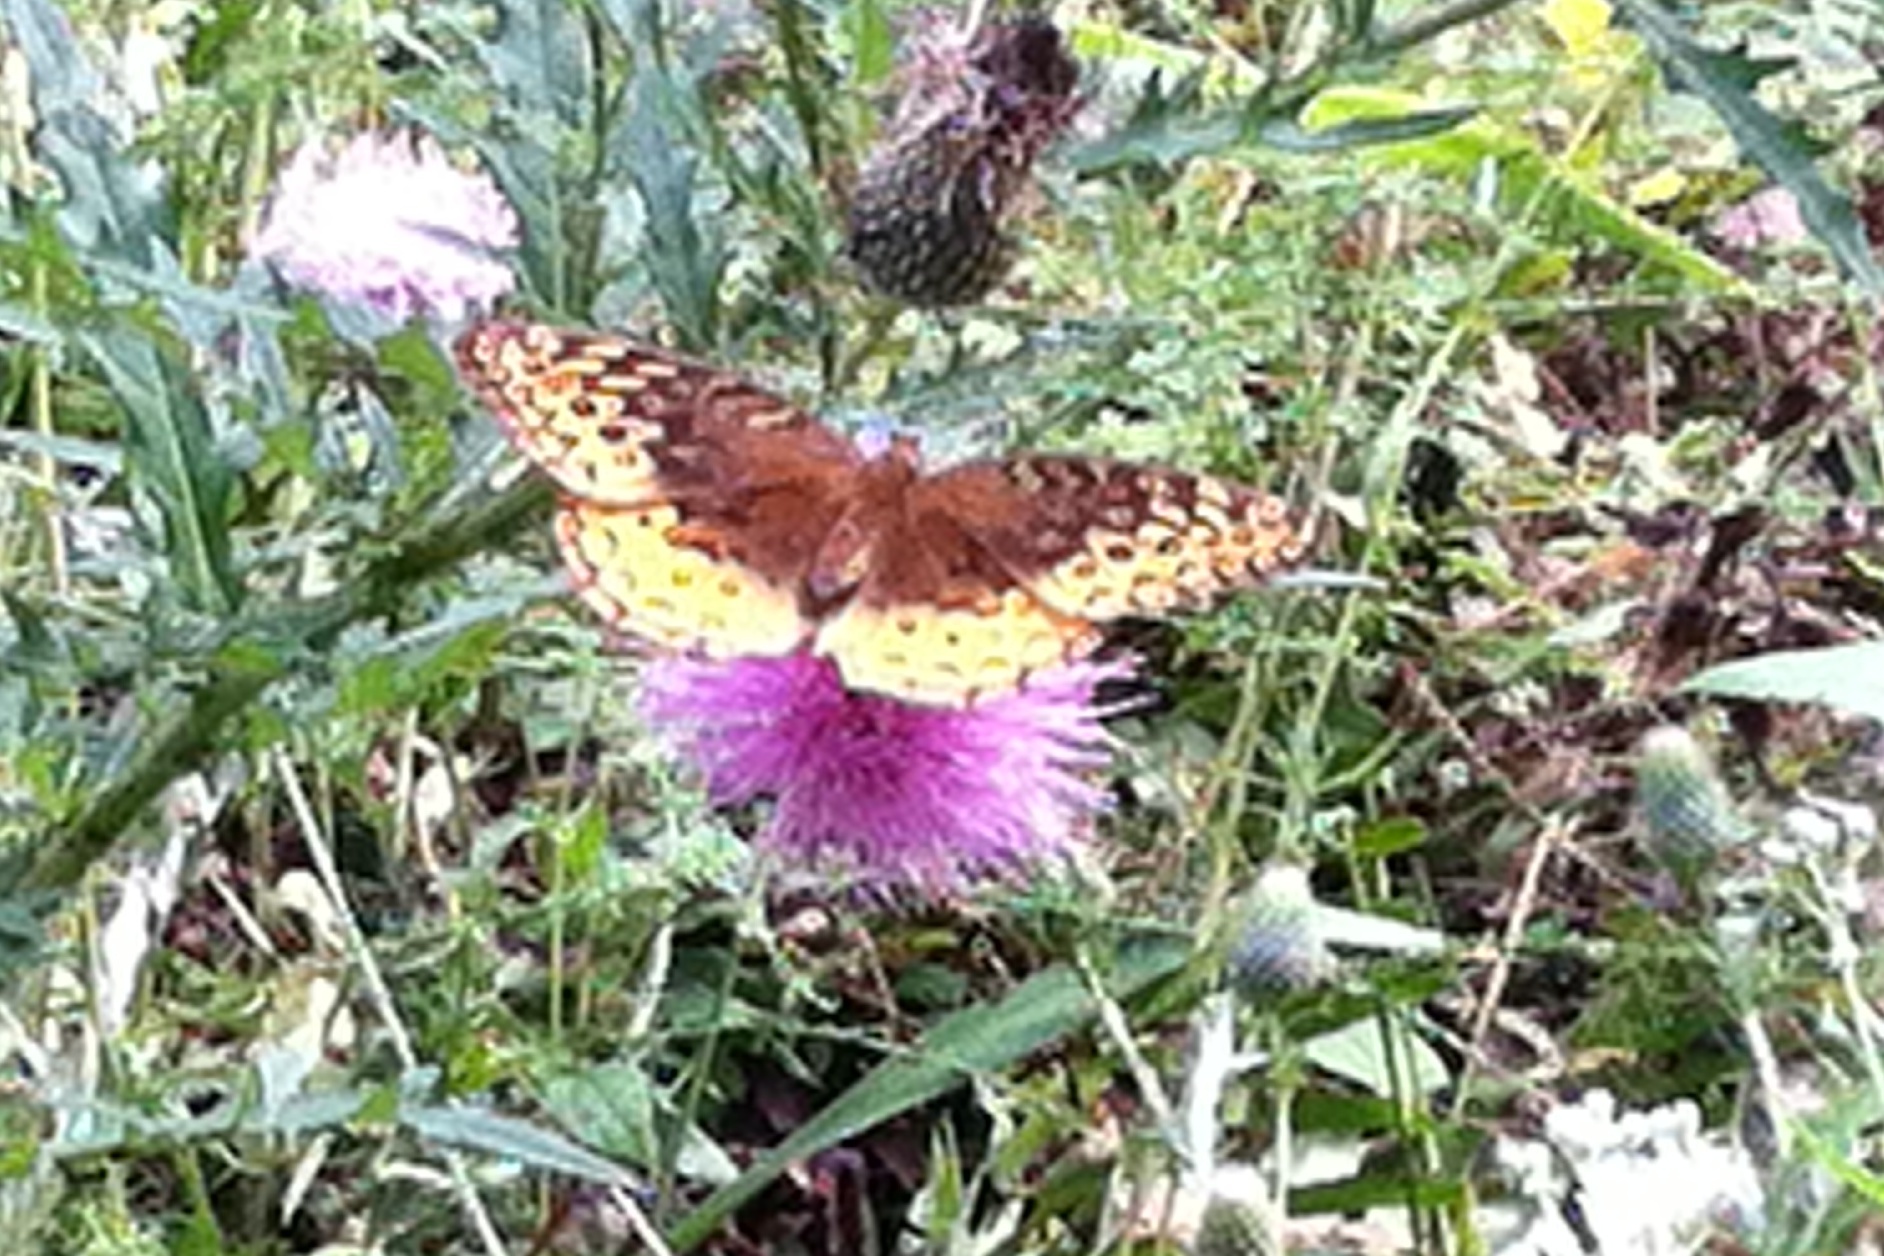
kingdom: Animalia
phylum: Arthropoda
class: Insecta
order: Lepidoptera
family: Nymphalidae
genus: Speyeria
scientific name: Speyeria cybele
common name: Great spangled fritillary
